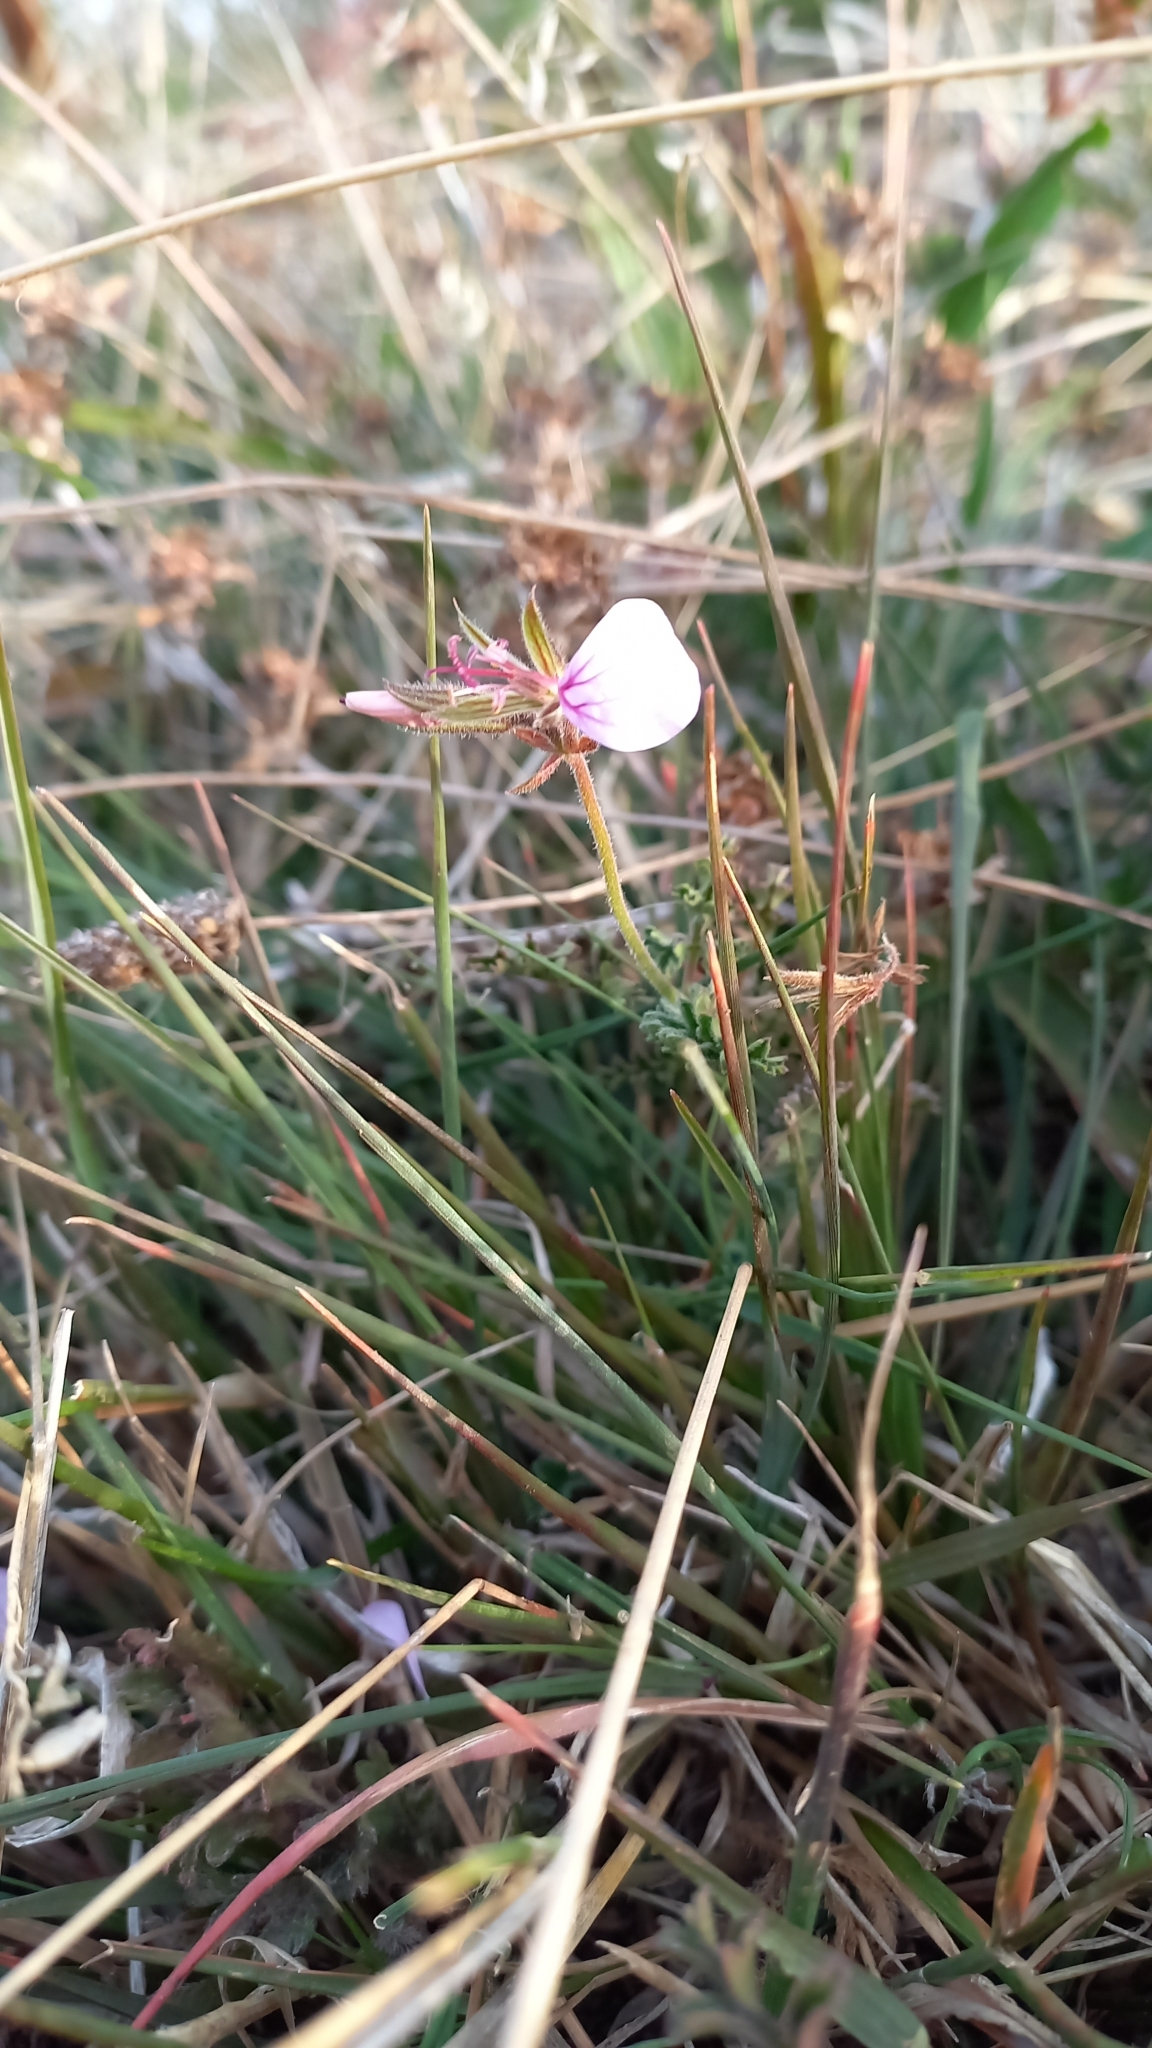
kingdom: Plantae
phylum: Tracheophyta
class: Magnoliopsida
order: Geraniales
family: Geraniaceae
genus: Pelargonium
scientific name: Pelargonium myrrhifolium
